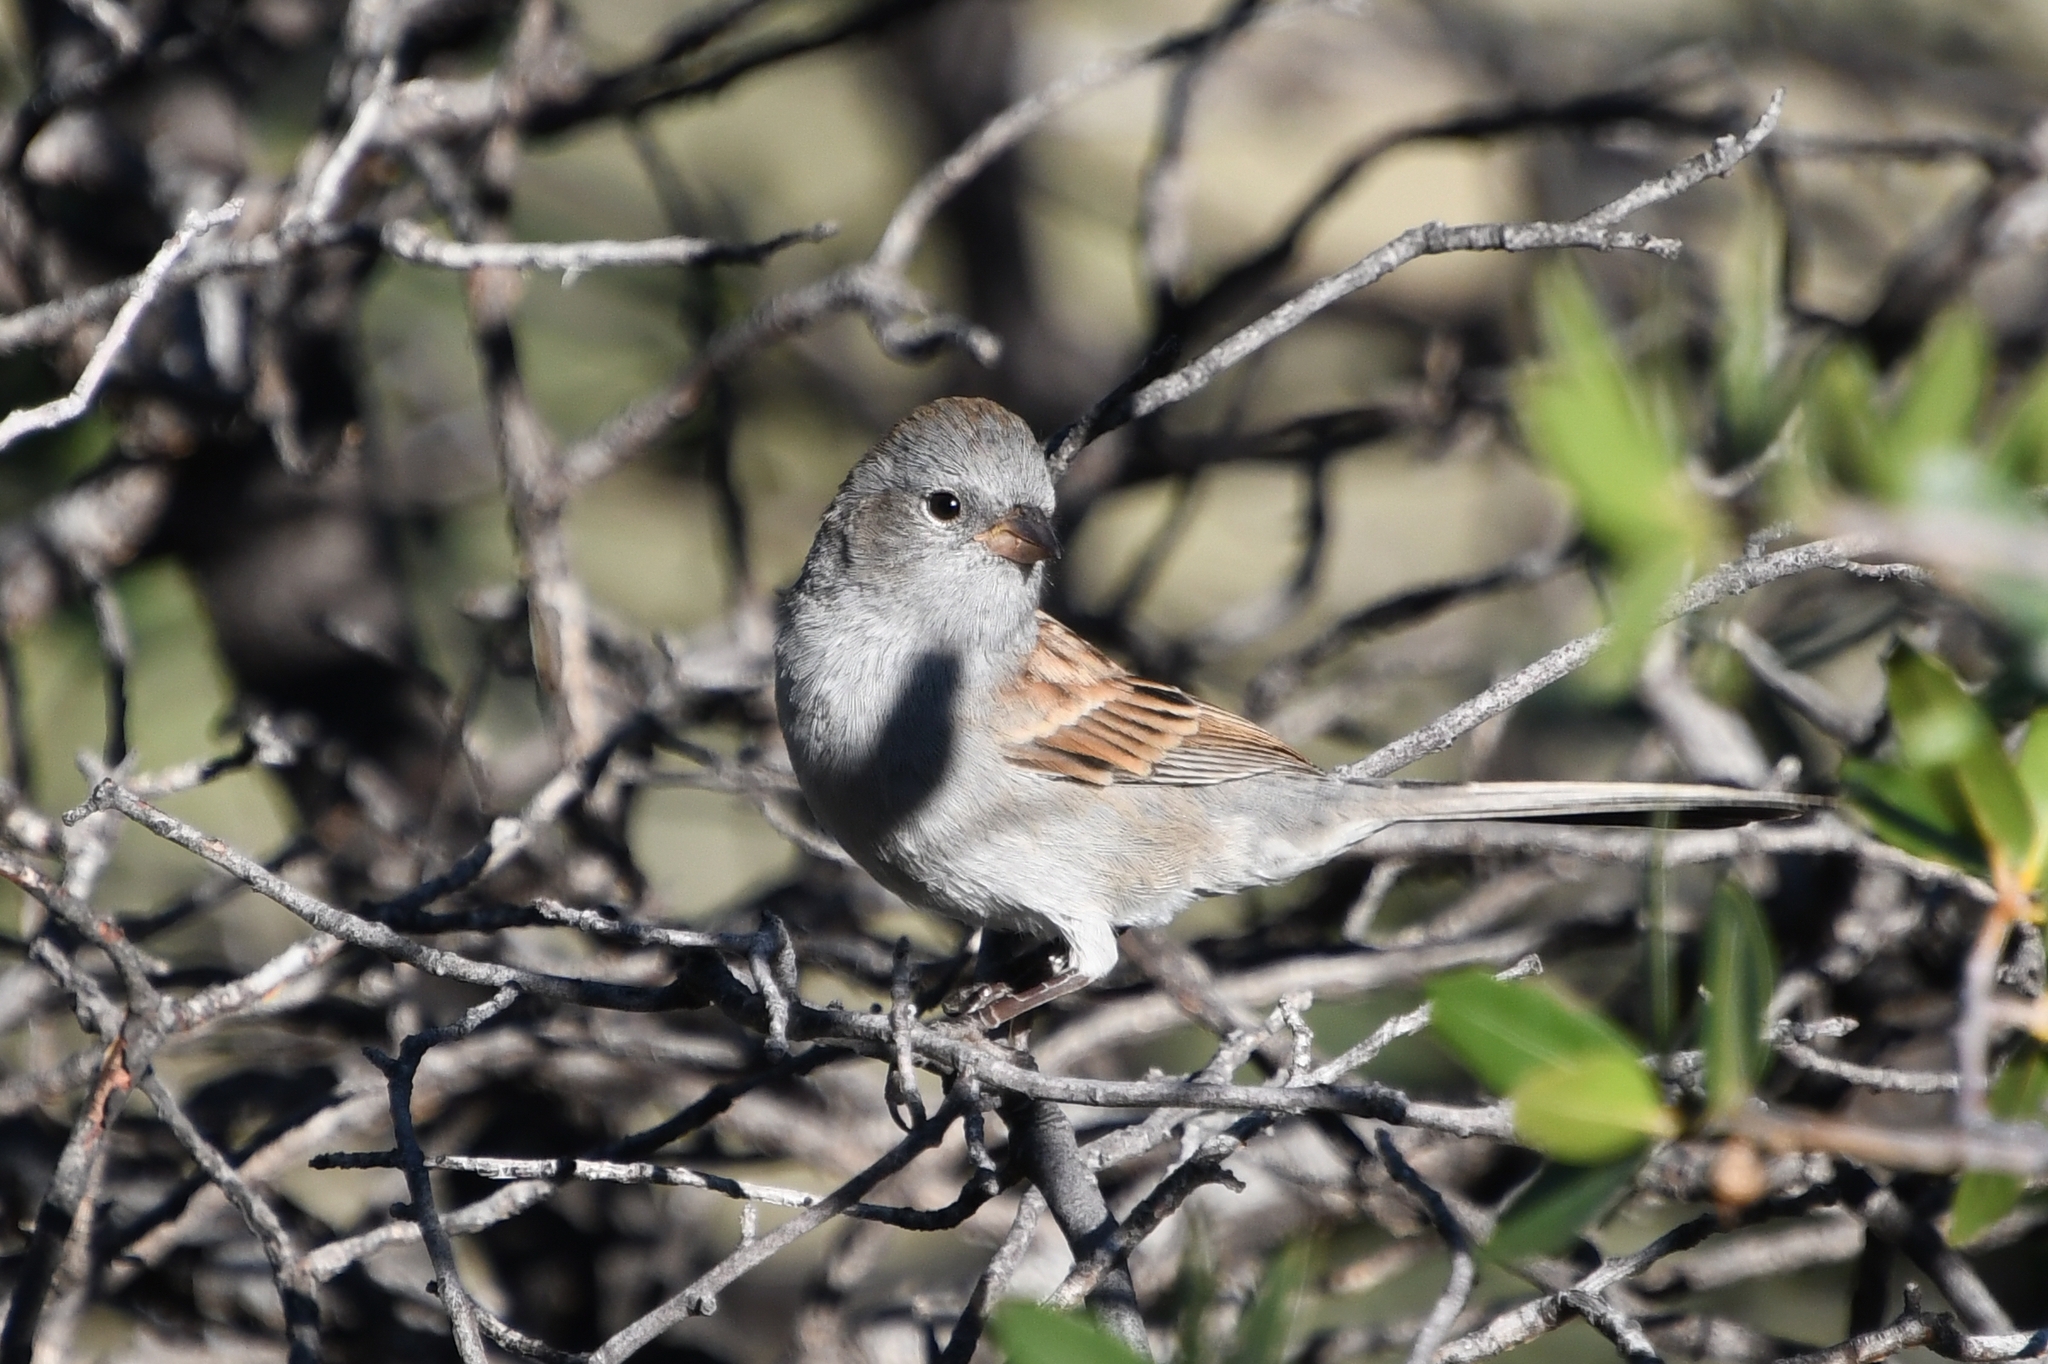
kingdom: Animalia
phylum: Chordata
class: Aves
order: Passeriformes
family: Passerellidae
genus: Spizella
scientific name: Spizella atrogularis
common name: Black-chinned sparrow
